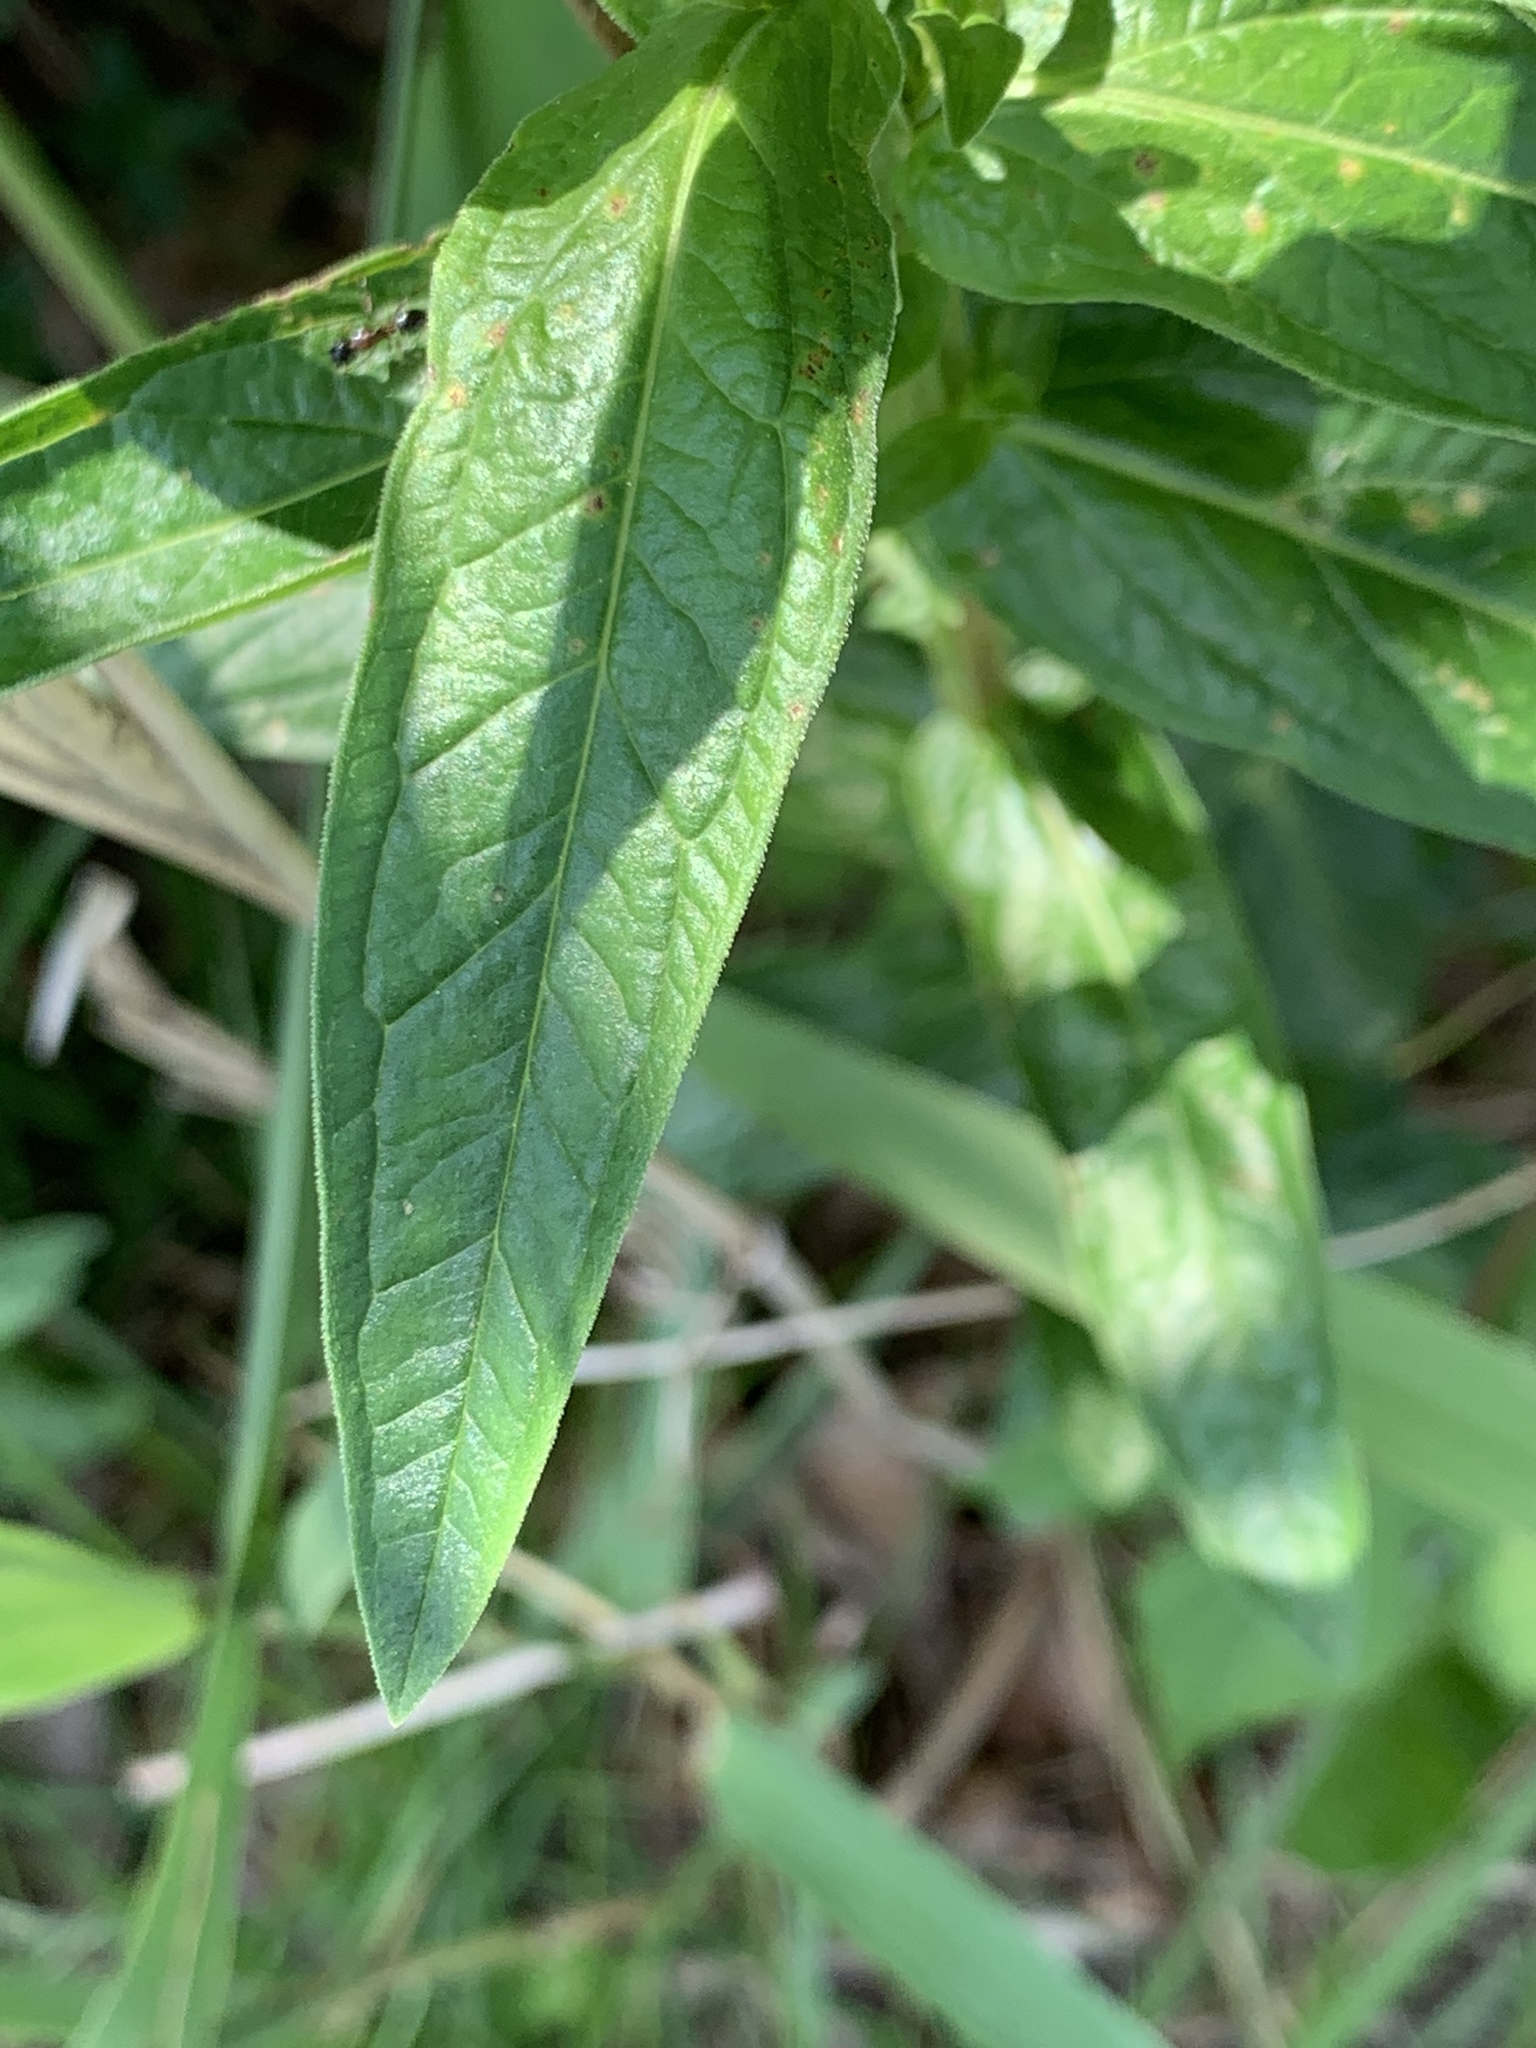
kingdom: Plantae
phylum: Tracheophyta
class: Magnoliopsida
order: Myrtales
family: Lythraceae
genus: Lythrum
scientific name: Lythrum salicaria
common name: Purple loosestrife
